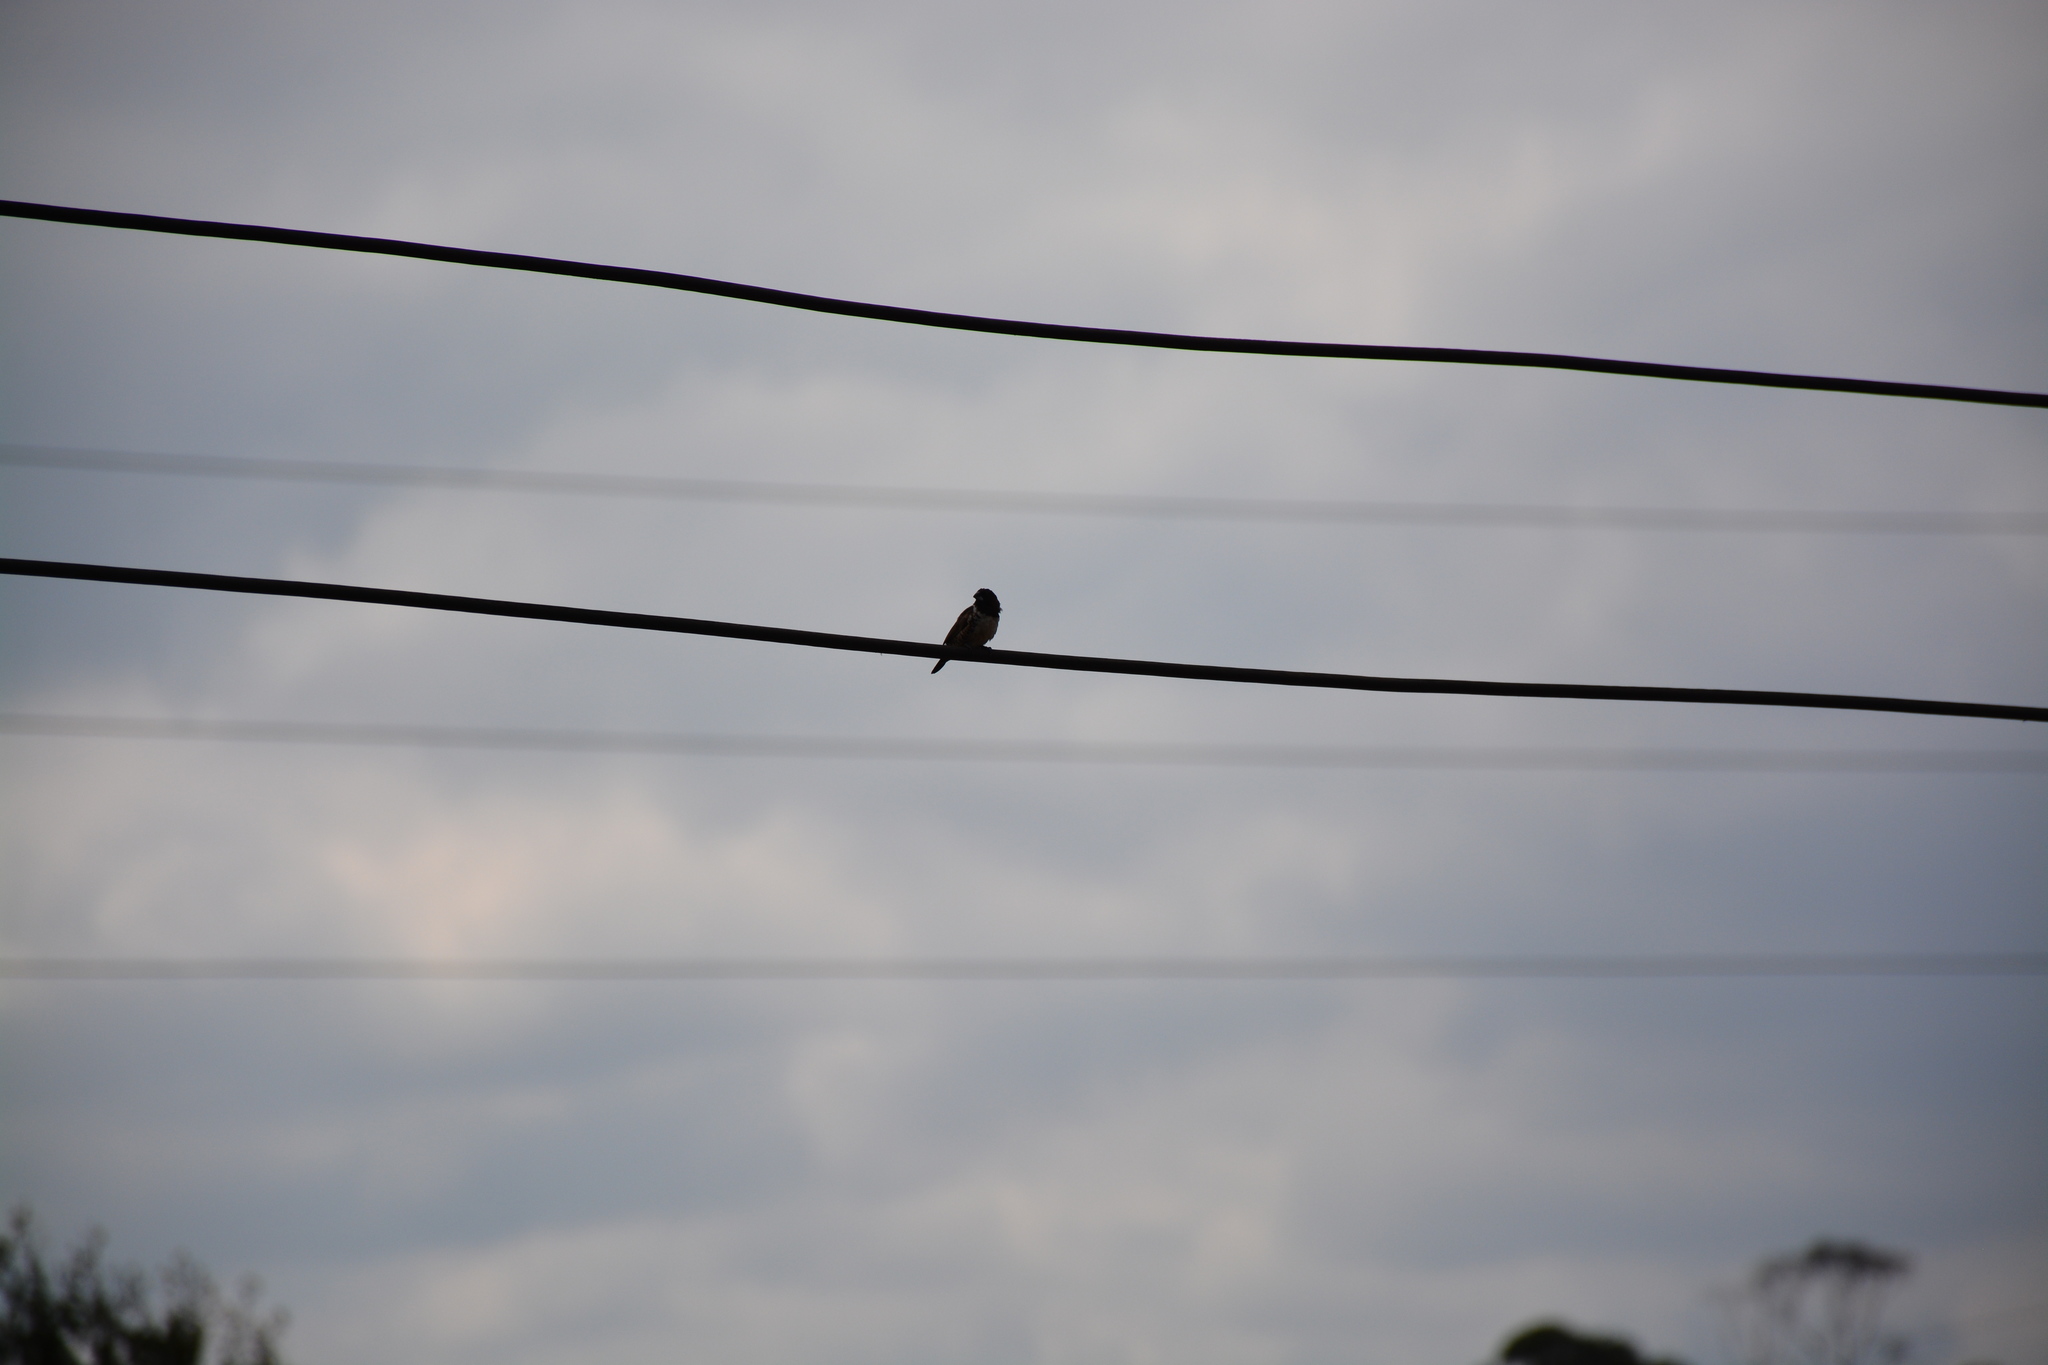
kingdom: Animalia
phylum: Chordata
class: Aves
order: Passeriformes
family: Estrildidae
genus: Lonchura
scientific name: Lonchura cucullata
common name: Bronze mannikin
